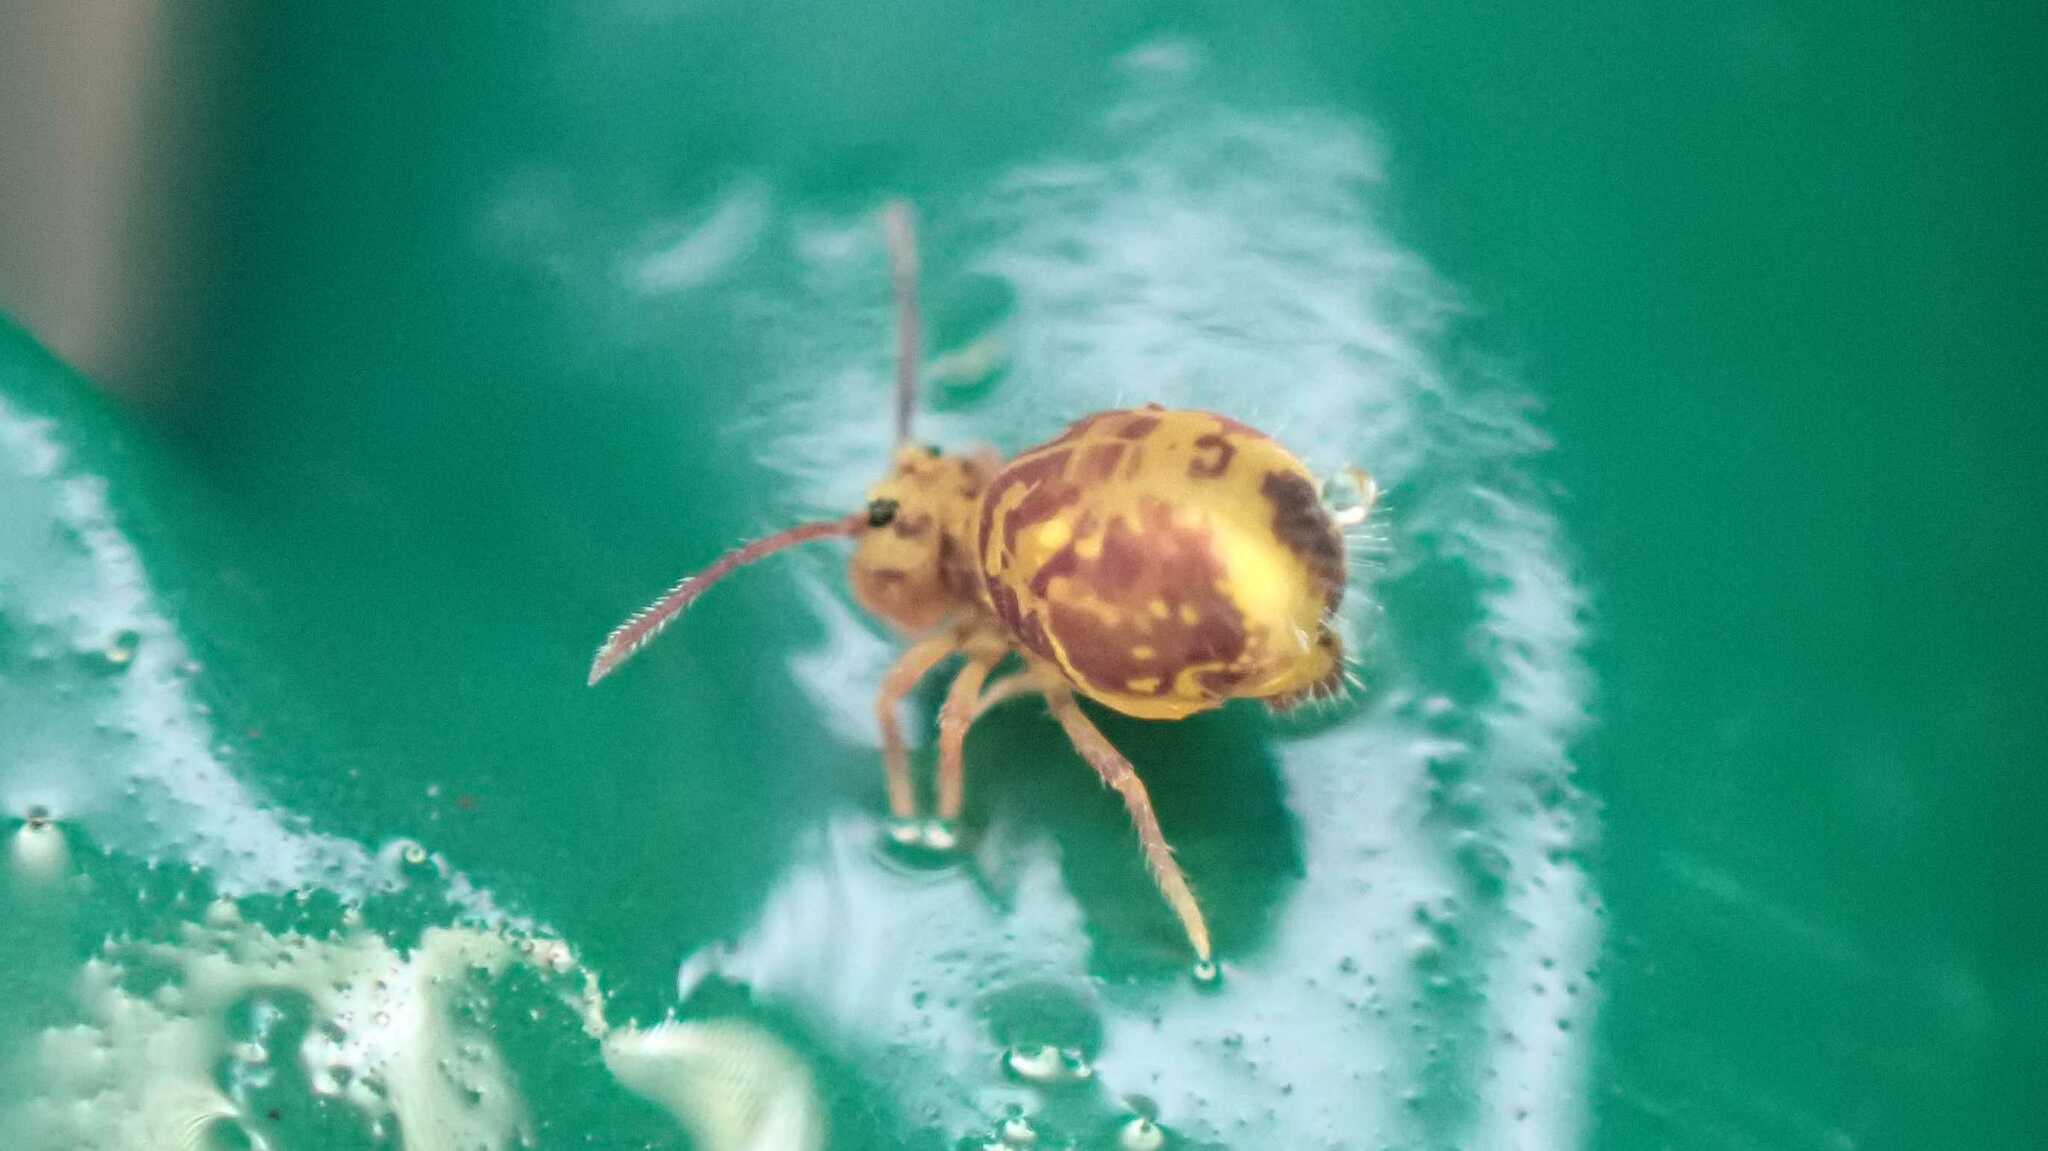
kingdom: Animalia
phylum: Arthropoda
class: Collembola
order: Symphypleona
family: Dicyrtomidae
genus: Dicyrtomina
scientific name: Dicyrtomina ornata
